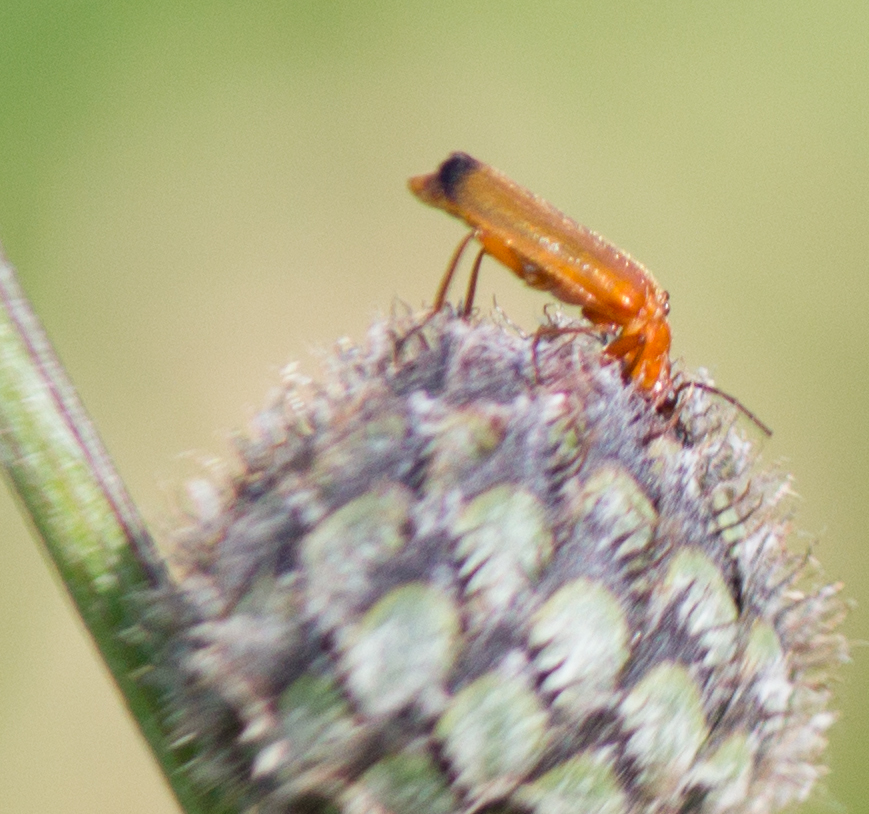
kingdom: Animalia
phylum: Arthropoda
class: Insecta
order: Coleoptera
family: Cantharidae
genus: Rhagonycha
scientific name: Rhagonycha fulva
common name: Common red soldier beetle
